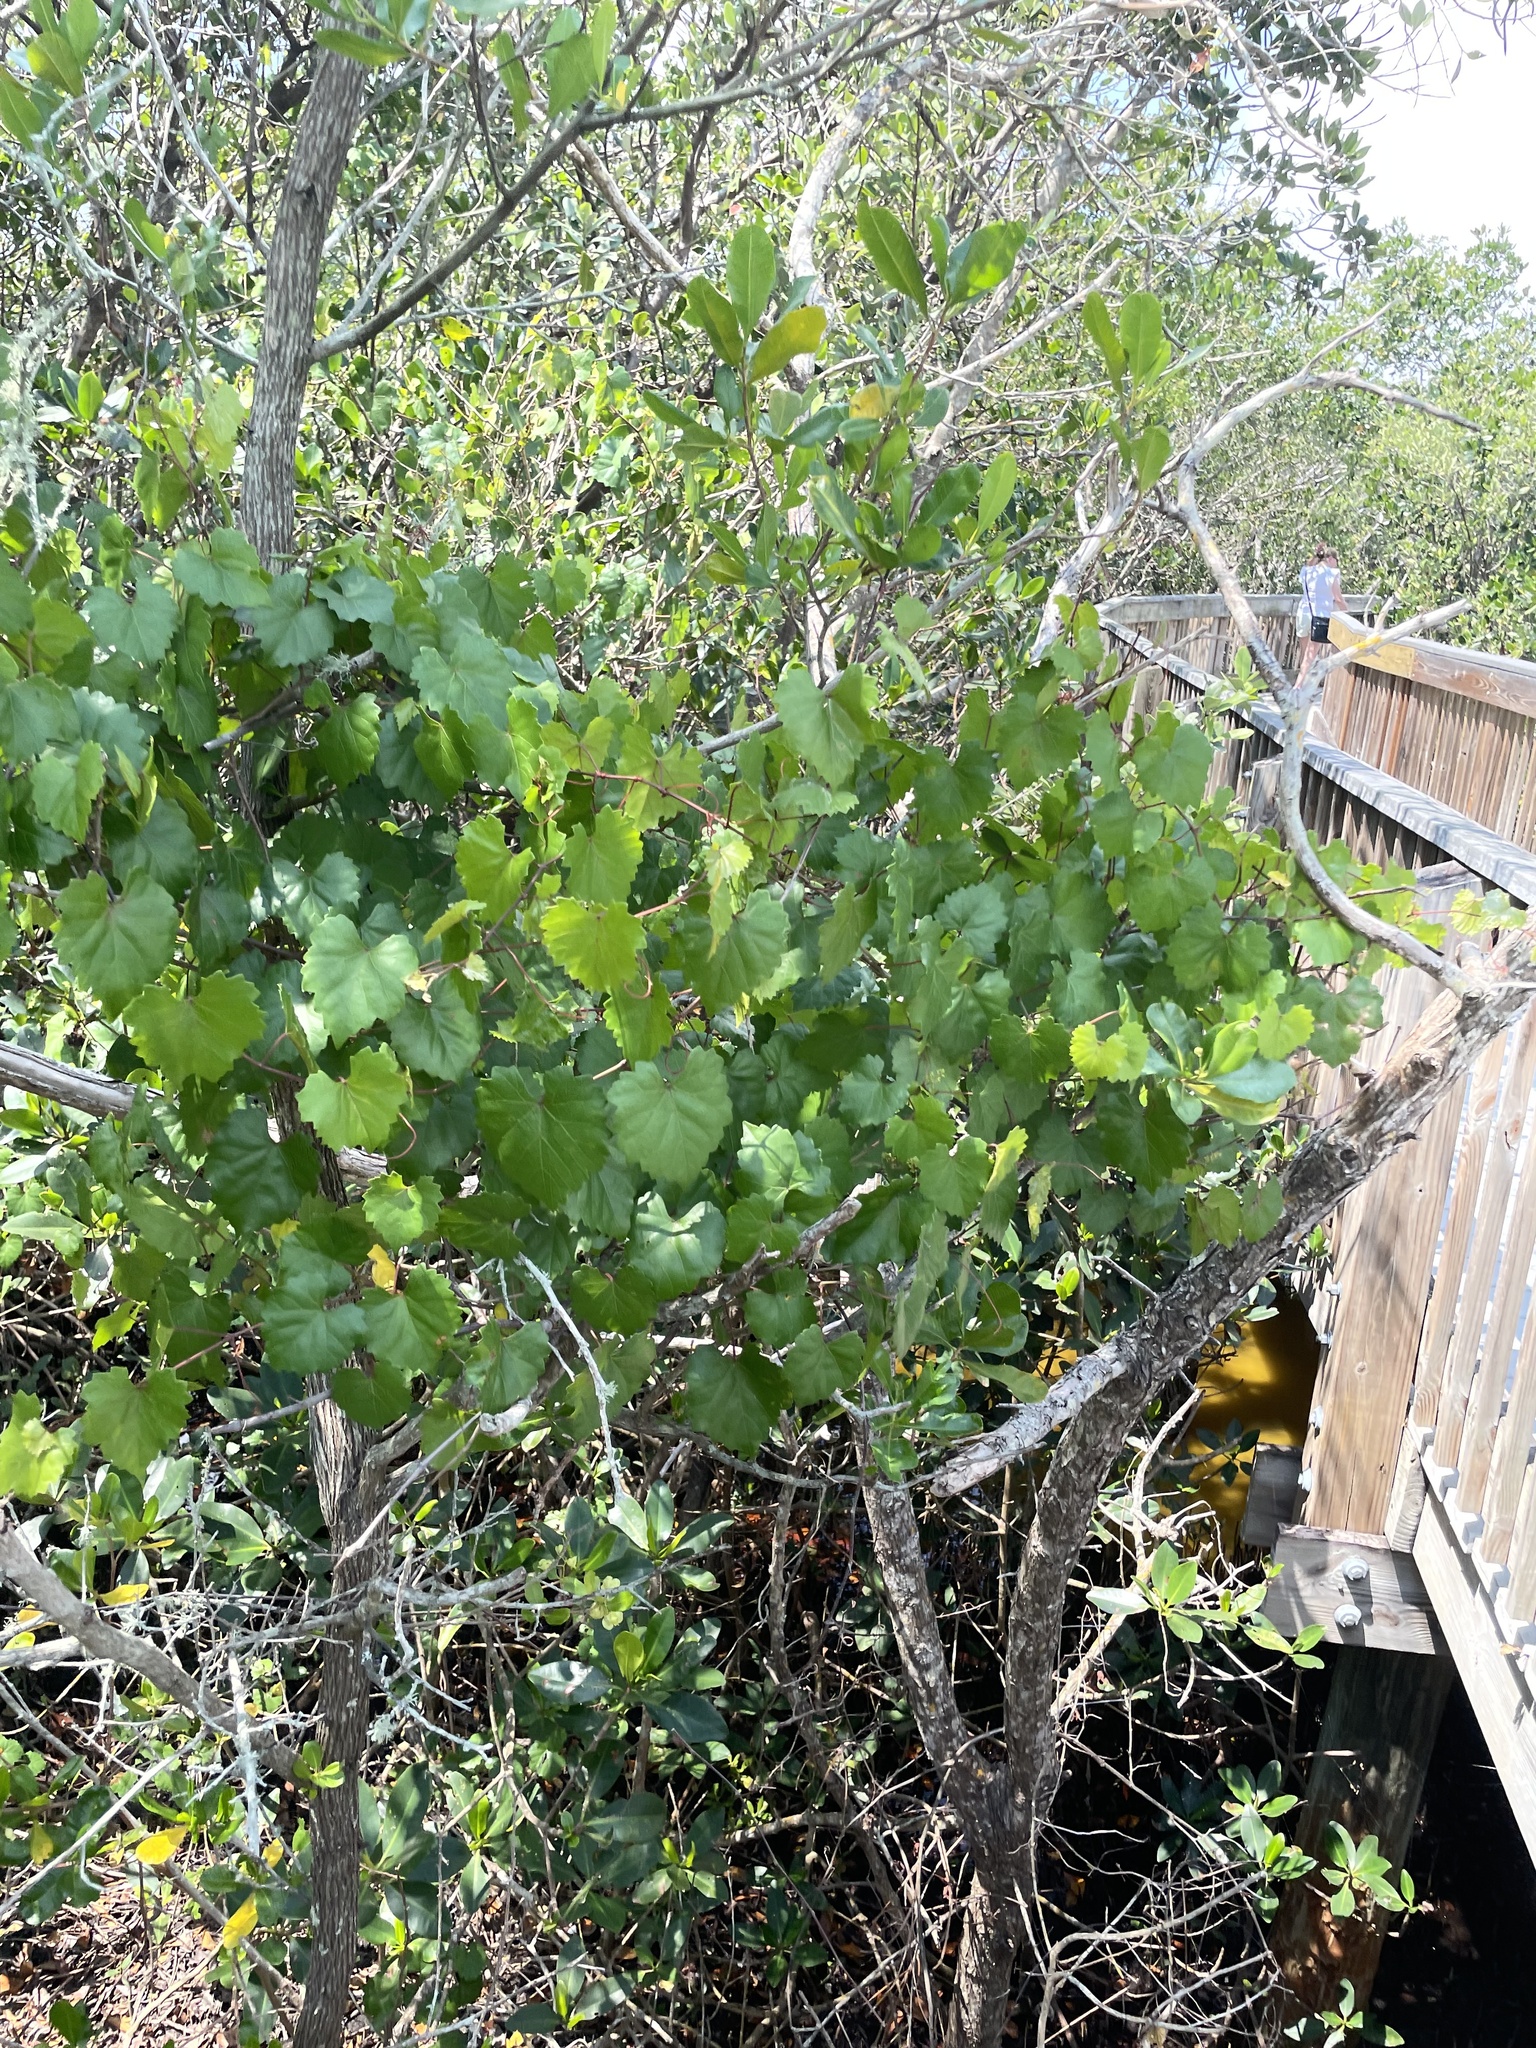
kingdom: Plantae
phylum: Tracheophyta
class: Magnoliopsida
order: Vitales
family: Vitaceae
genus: Vitis
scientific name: Vitis rotundifolia
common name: Muscadine grape
